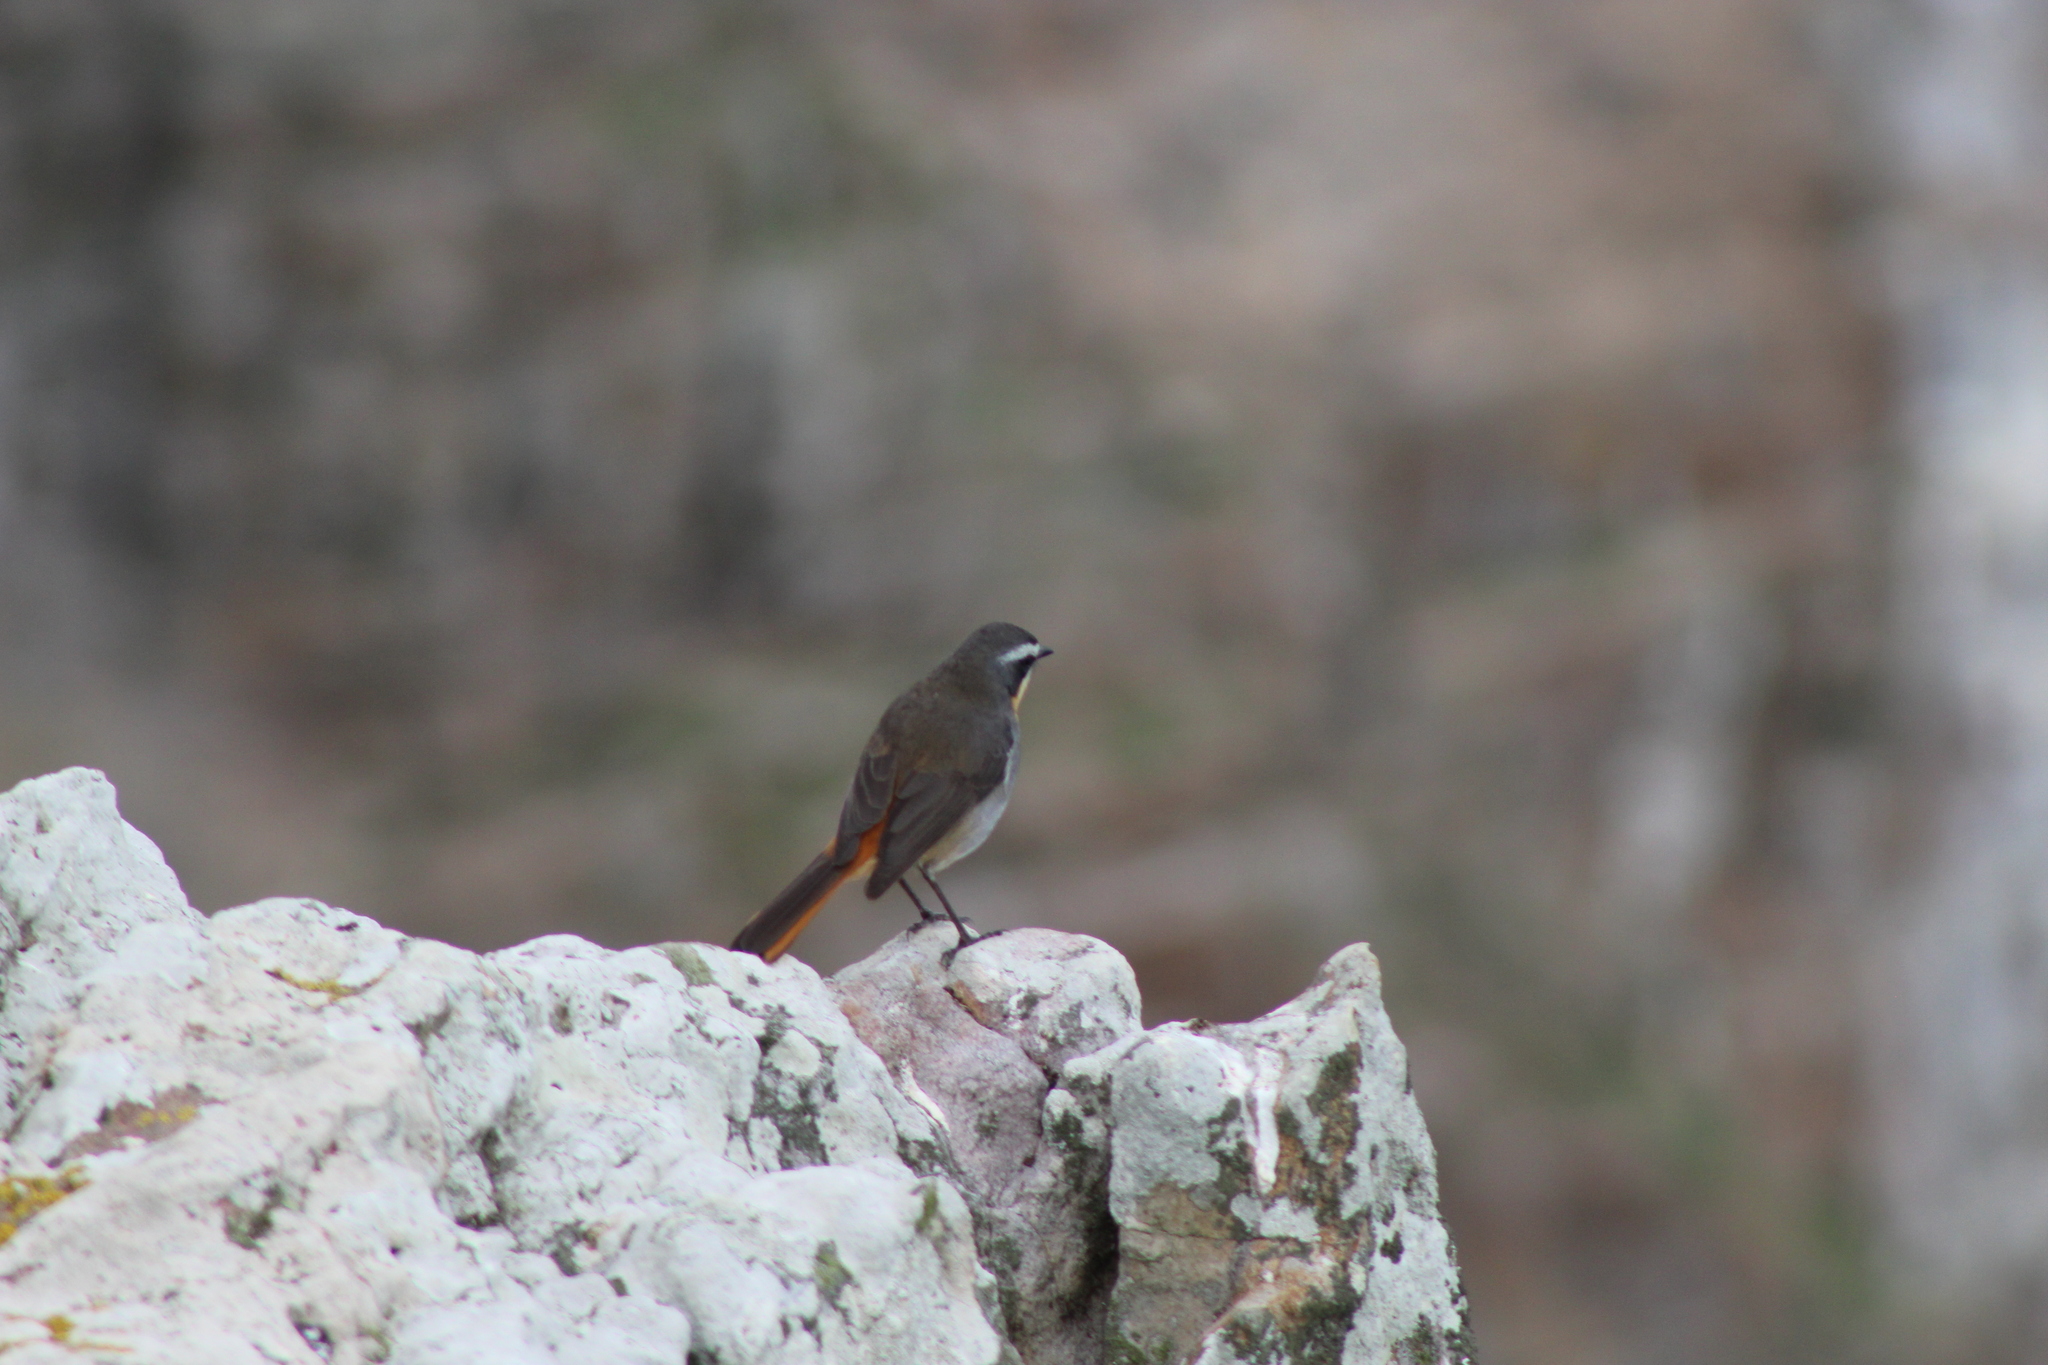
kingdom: Animalia
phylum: Chordata
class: Aves
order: Passeriformes
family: Muscicapidae
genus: Cossypha
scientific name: Cossypha caffra
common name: Cape robin-chat
